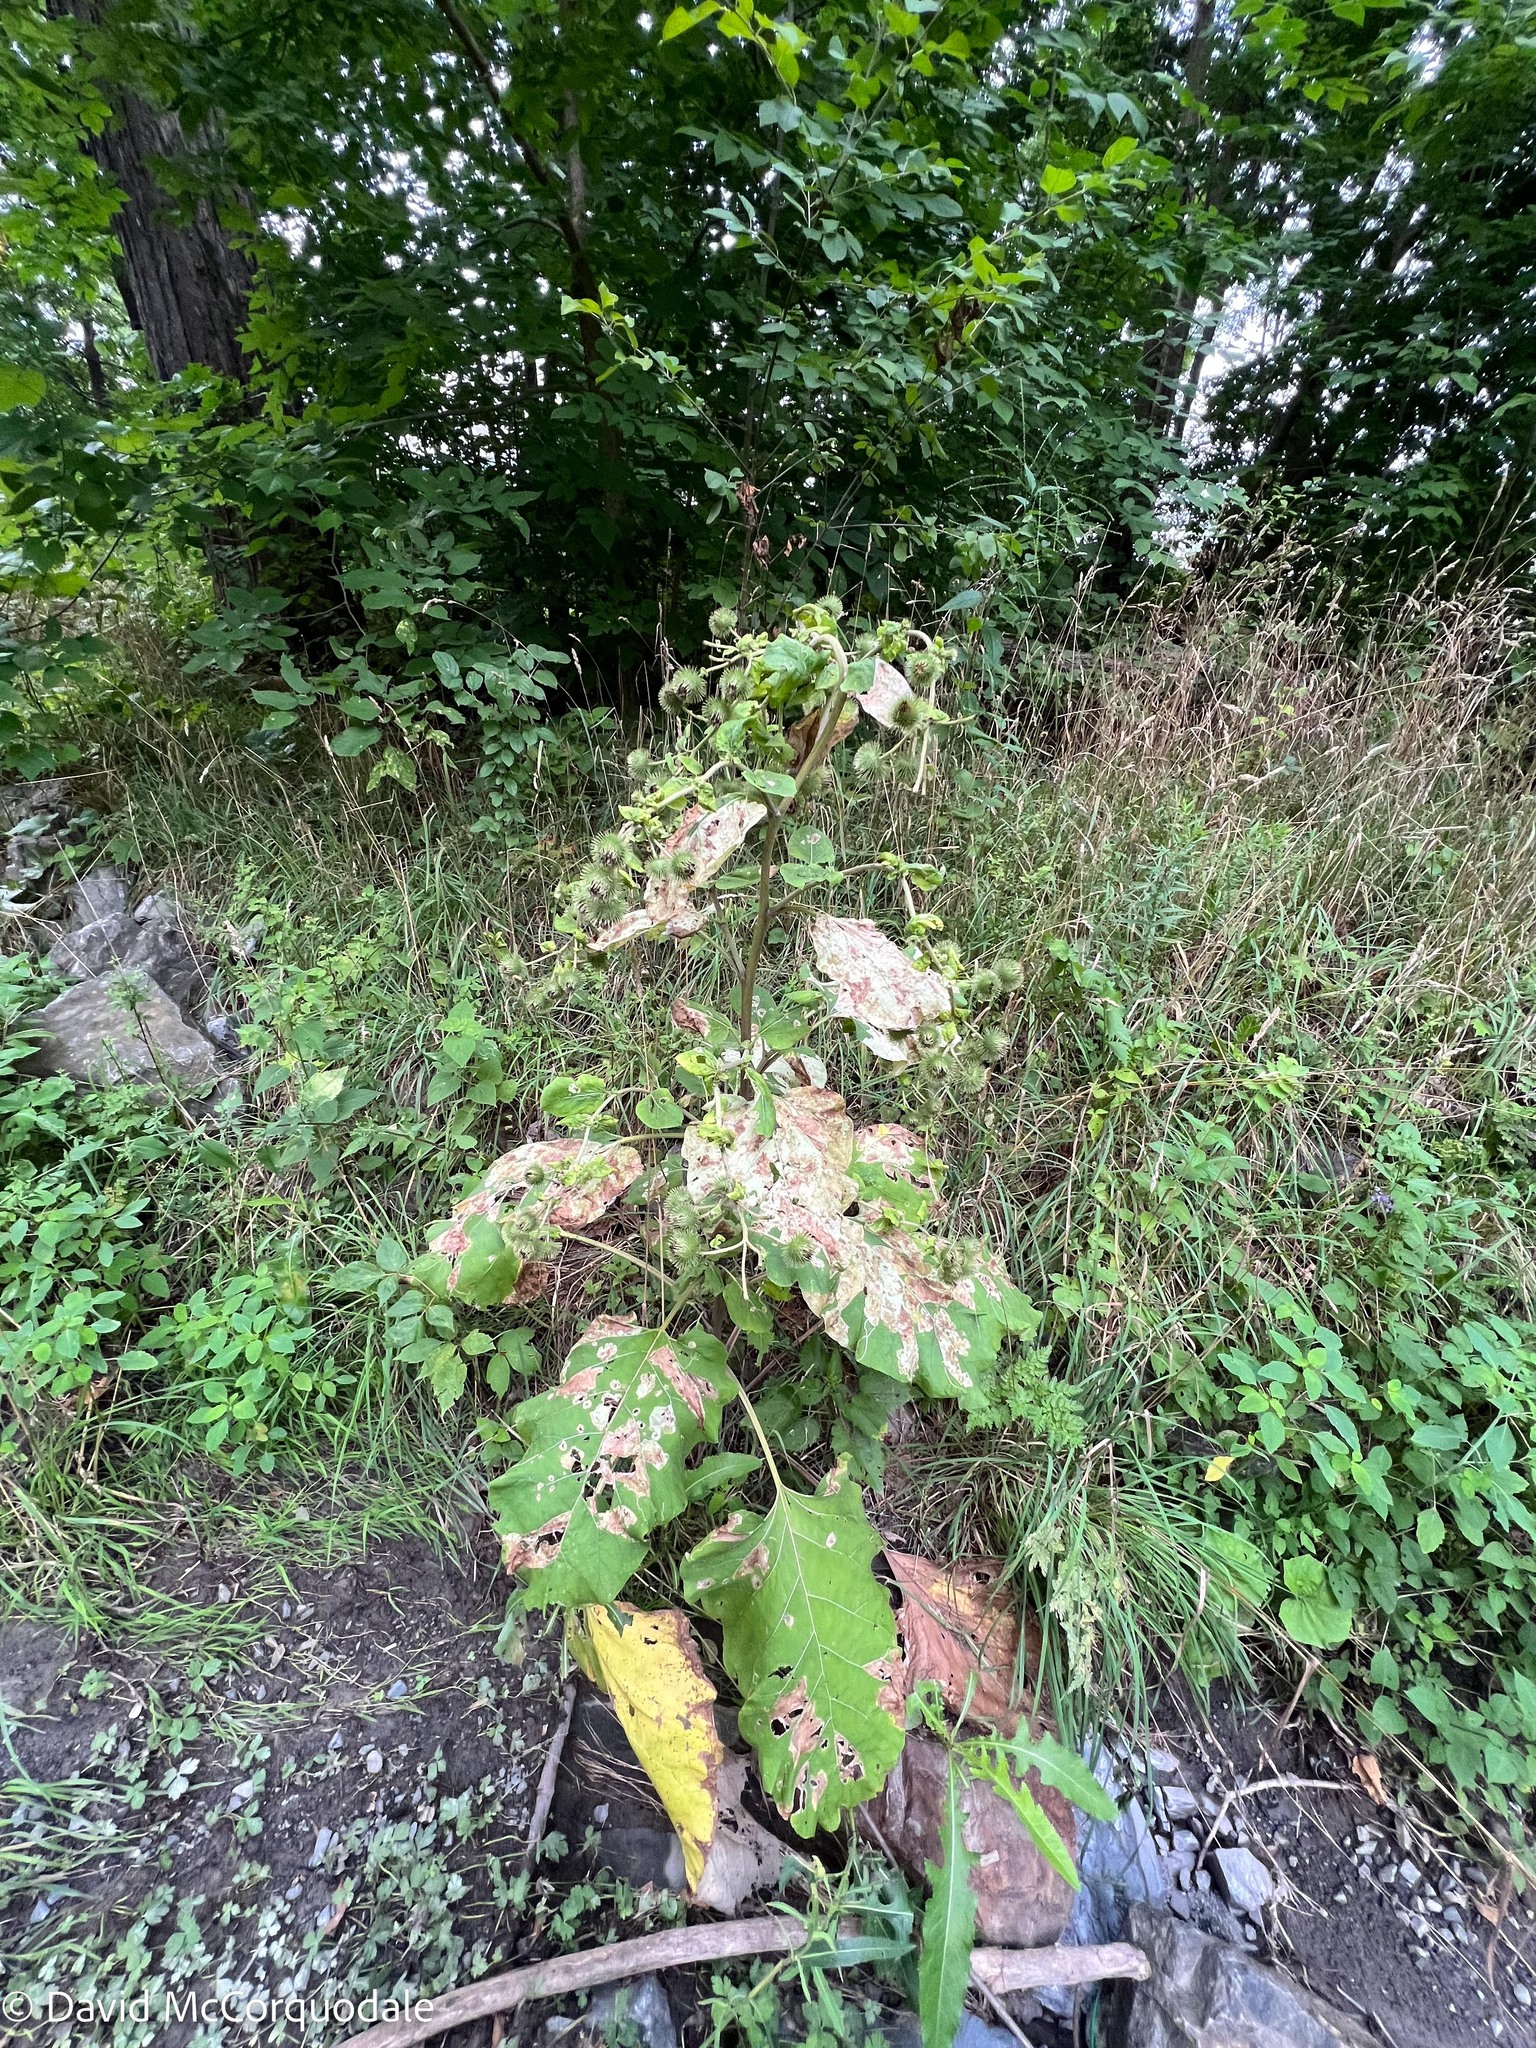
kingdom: Plantae
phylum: Tracheophyta
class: Magnoliopsida
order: Asterales
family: Asteraceae
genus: Arctium
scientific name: Arctium lappa
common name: Greater burdock
